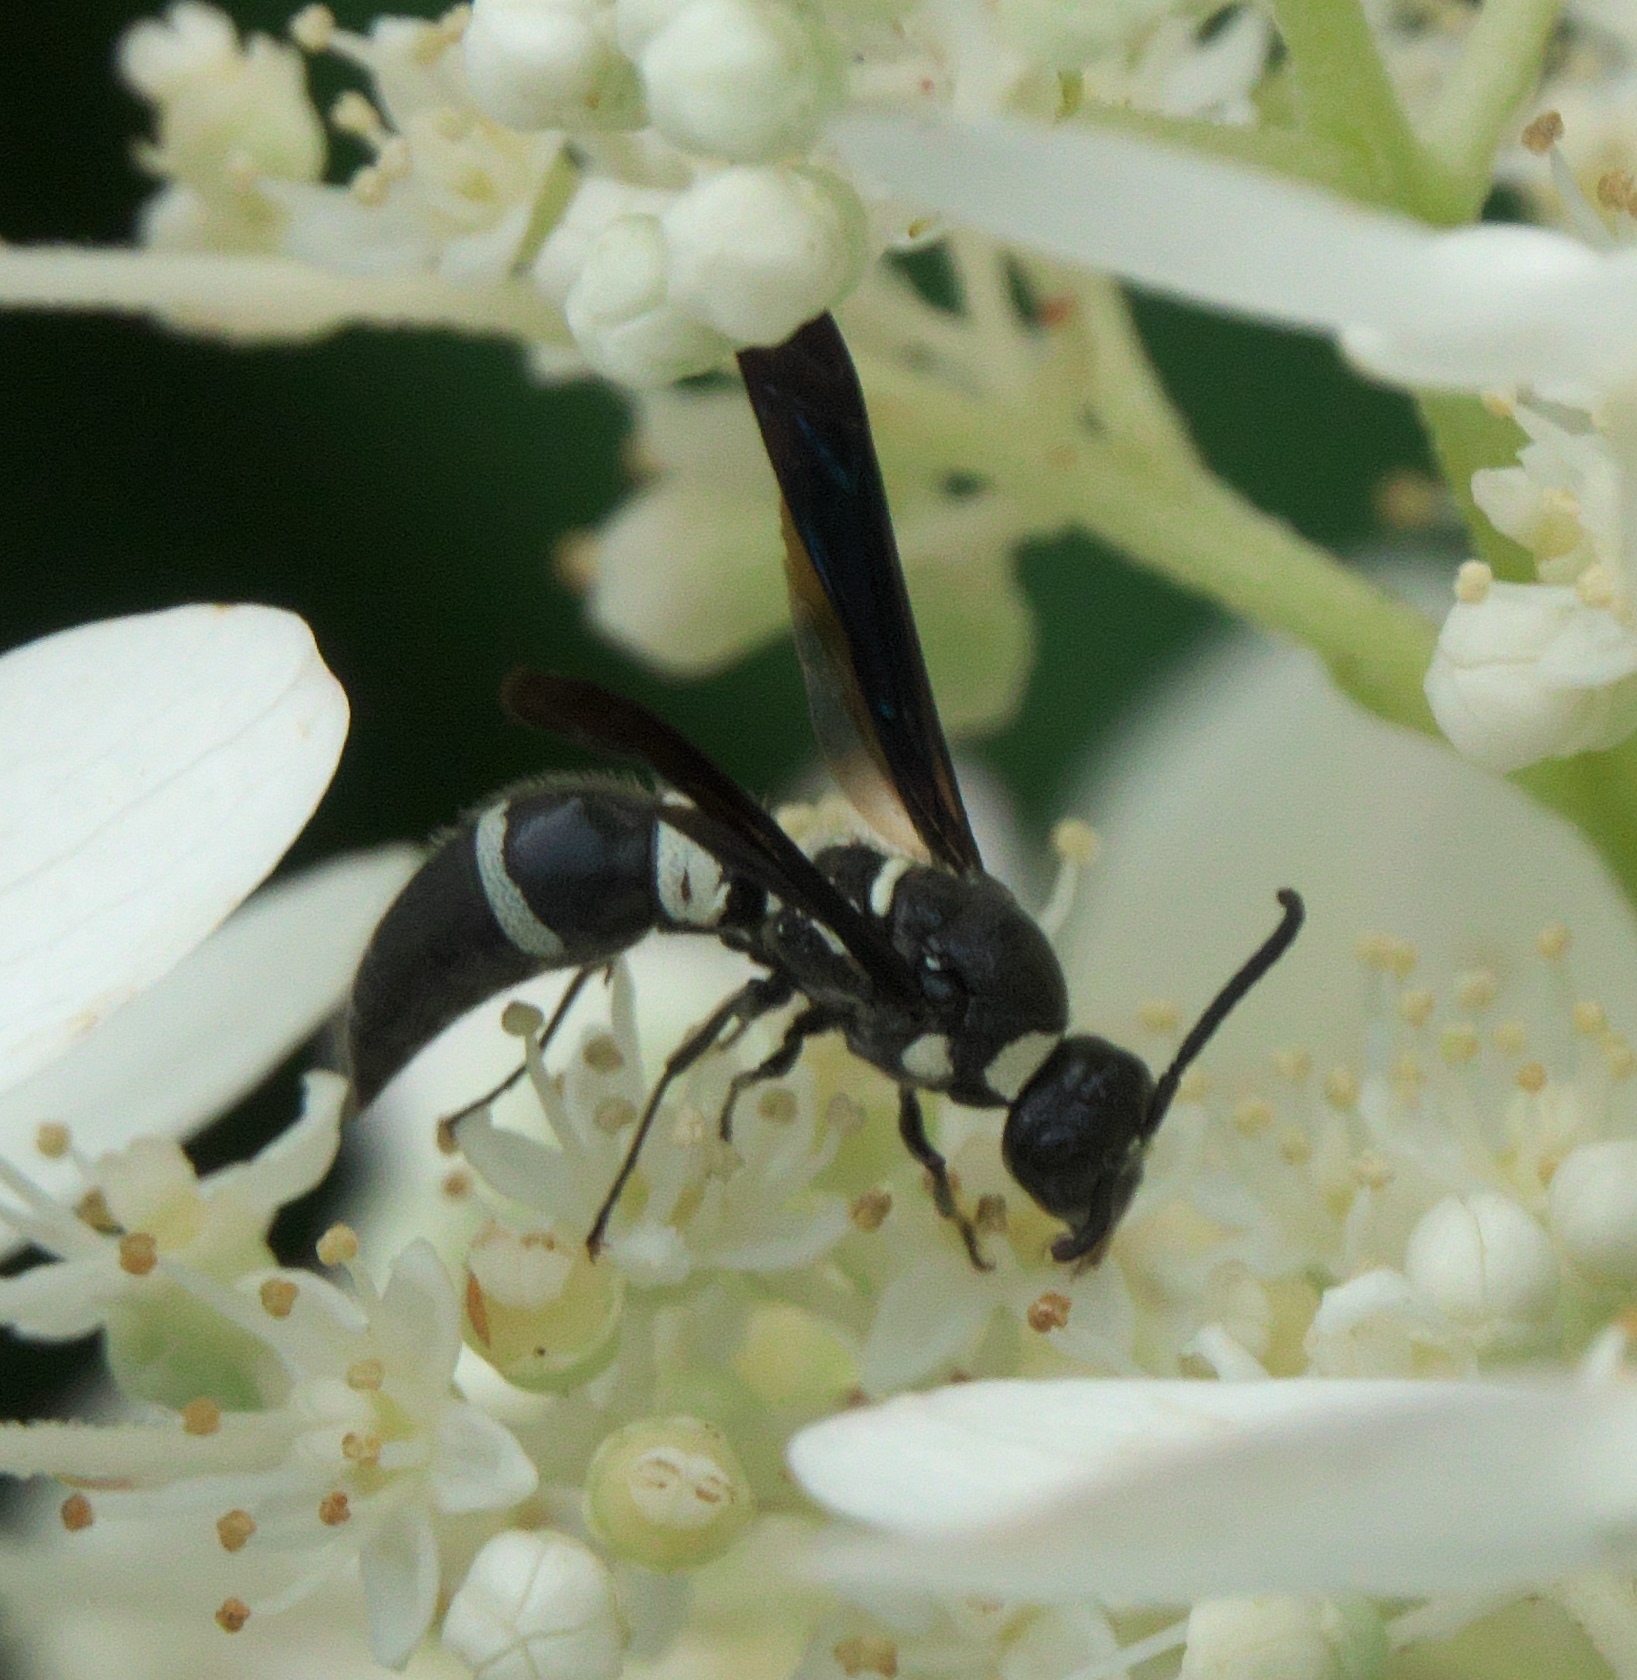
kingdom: Animalia
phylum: Arthropoda
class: Insecta
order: Hymenoptera
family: Eumenidae
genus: Pseudodynerus
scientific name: Pseudodynerus quadrisectus
